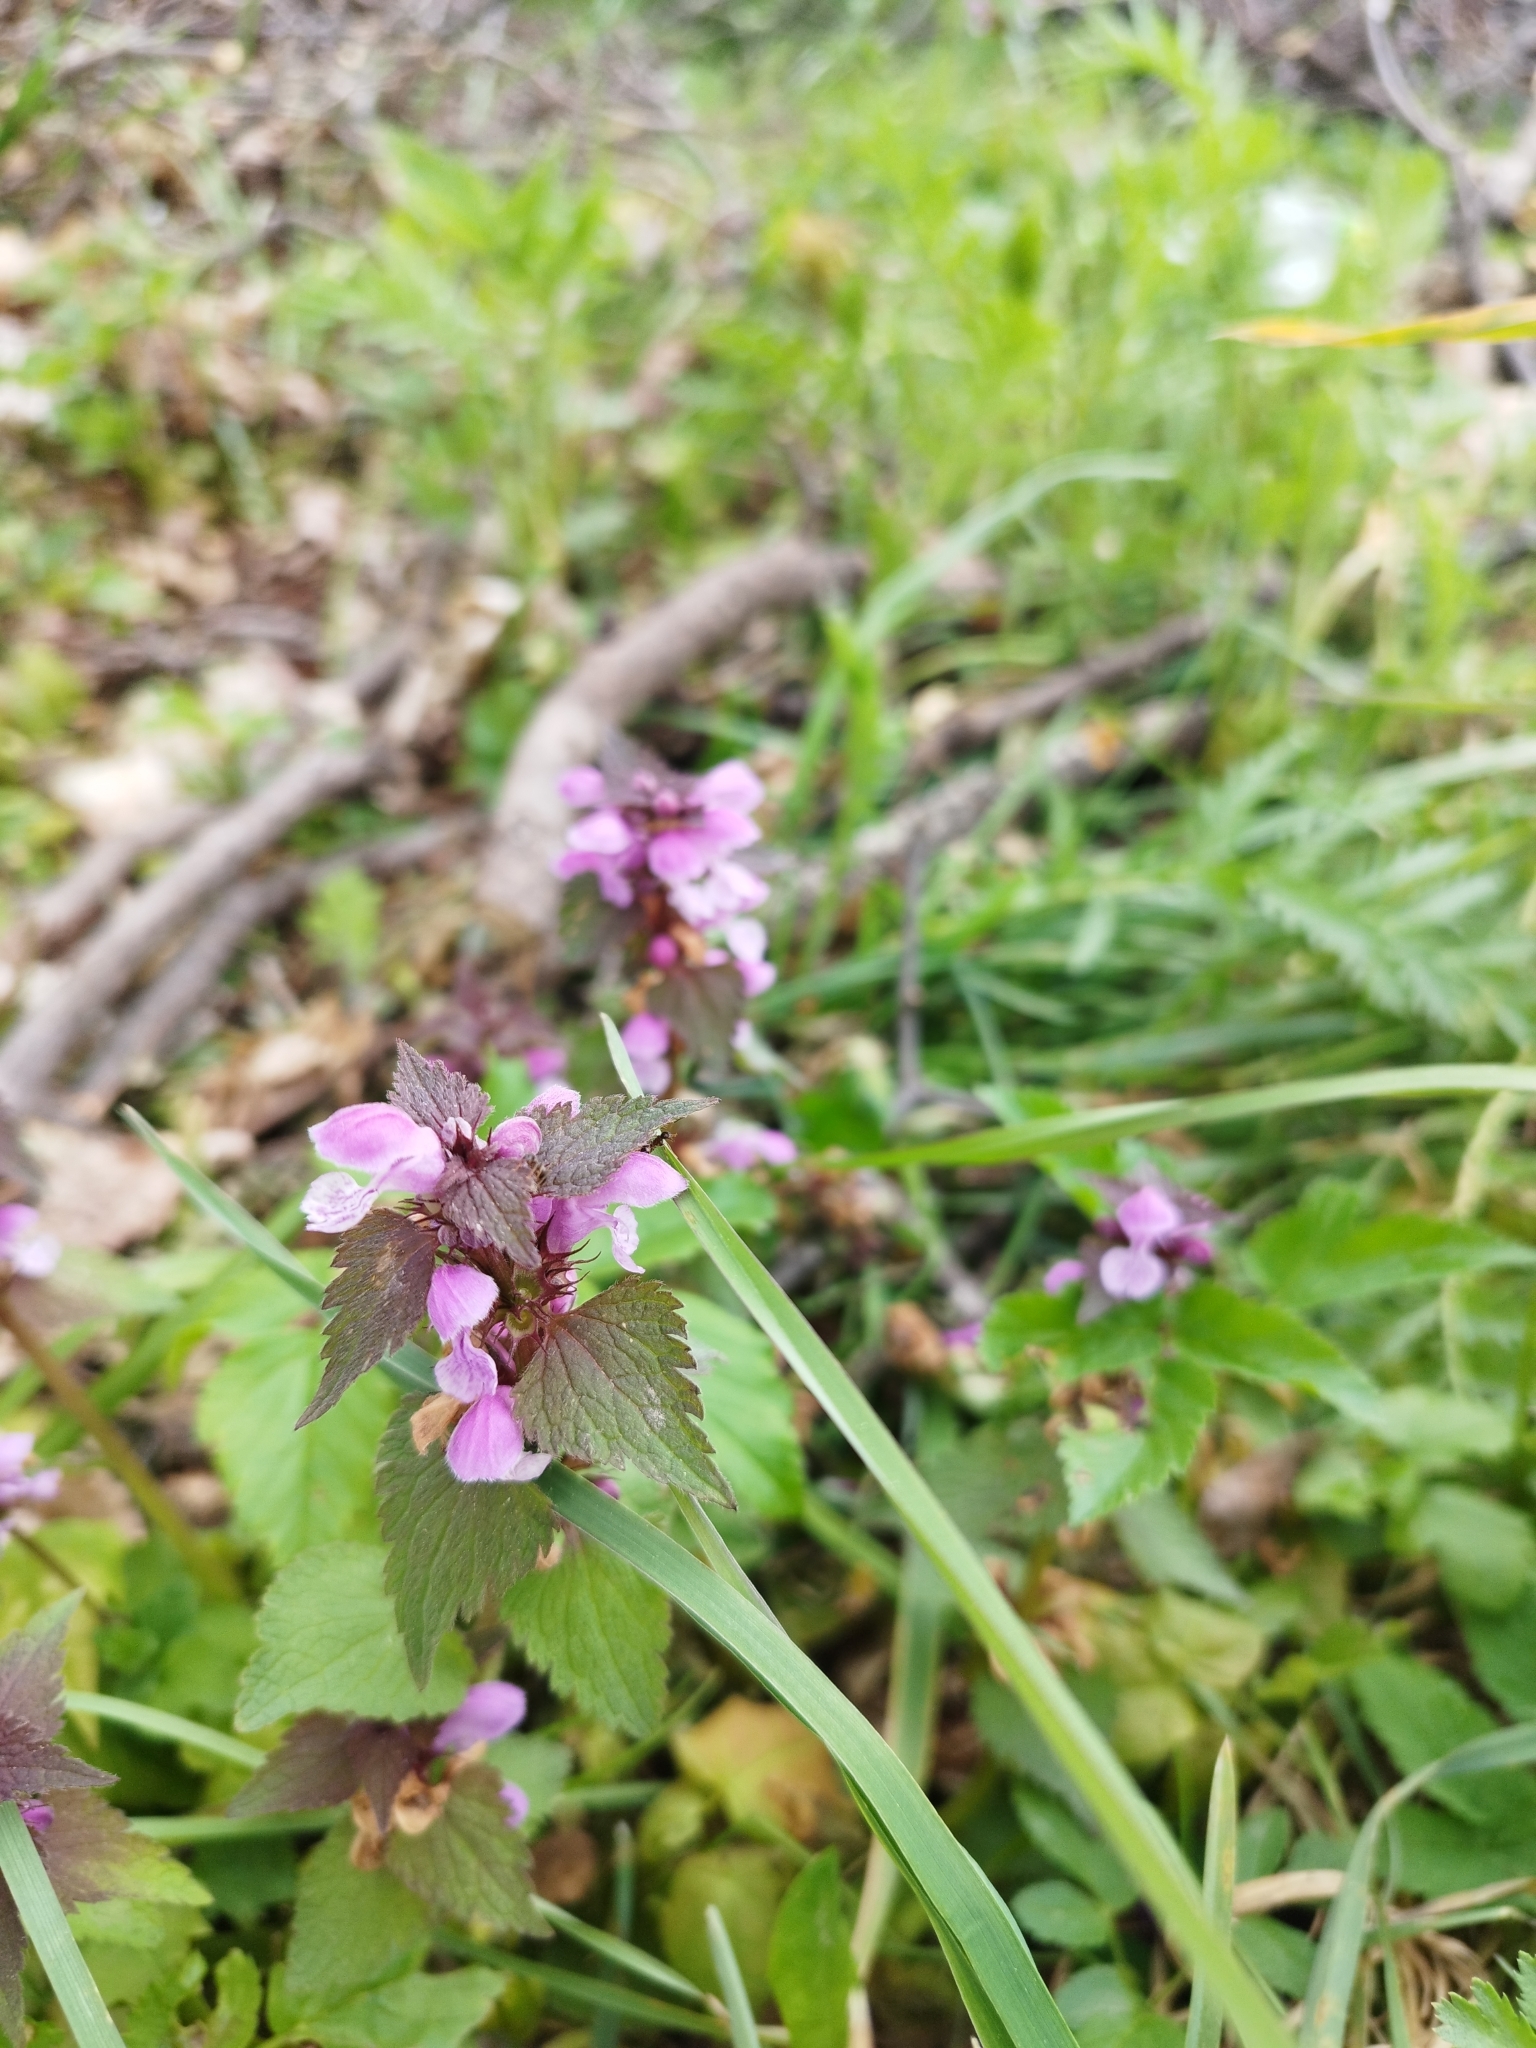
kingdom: Plantae
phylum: Tracheophyta
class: Magnoliopsida
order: Lamiales
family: Lamiaceae
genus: Lamium
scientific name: Lamium maculatum
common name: Spotted dead-nettle
